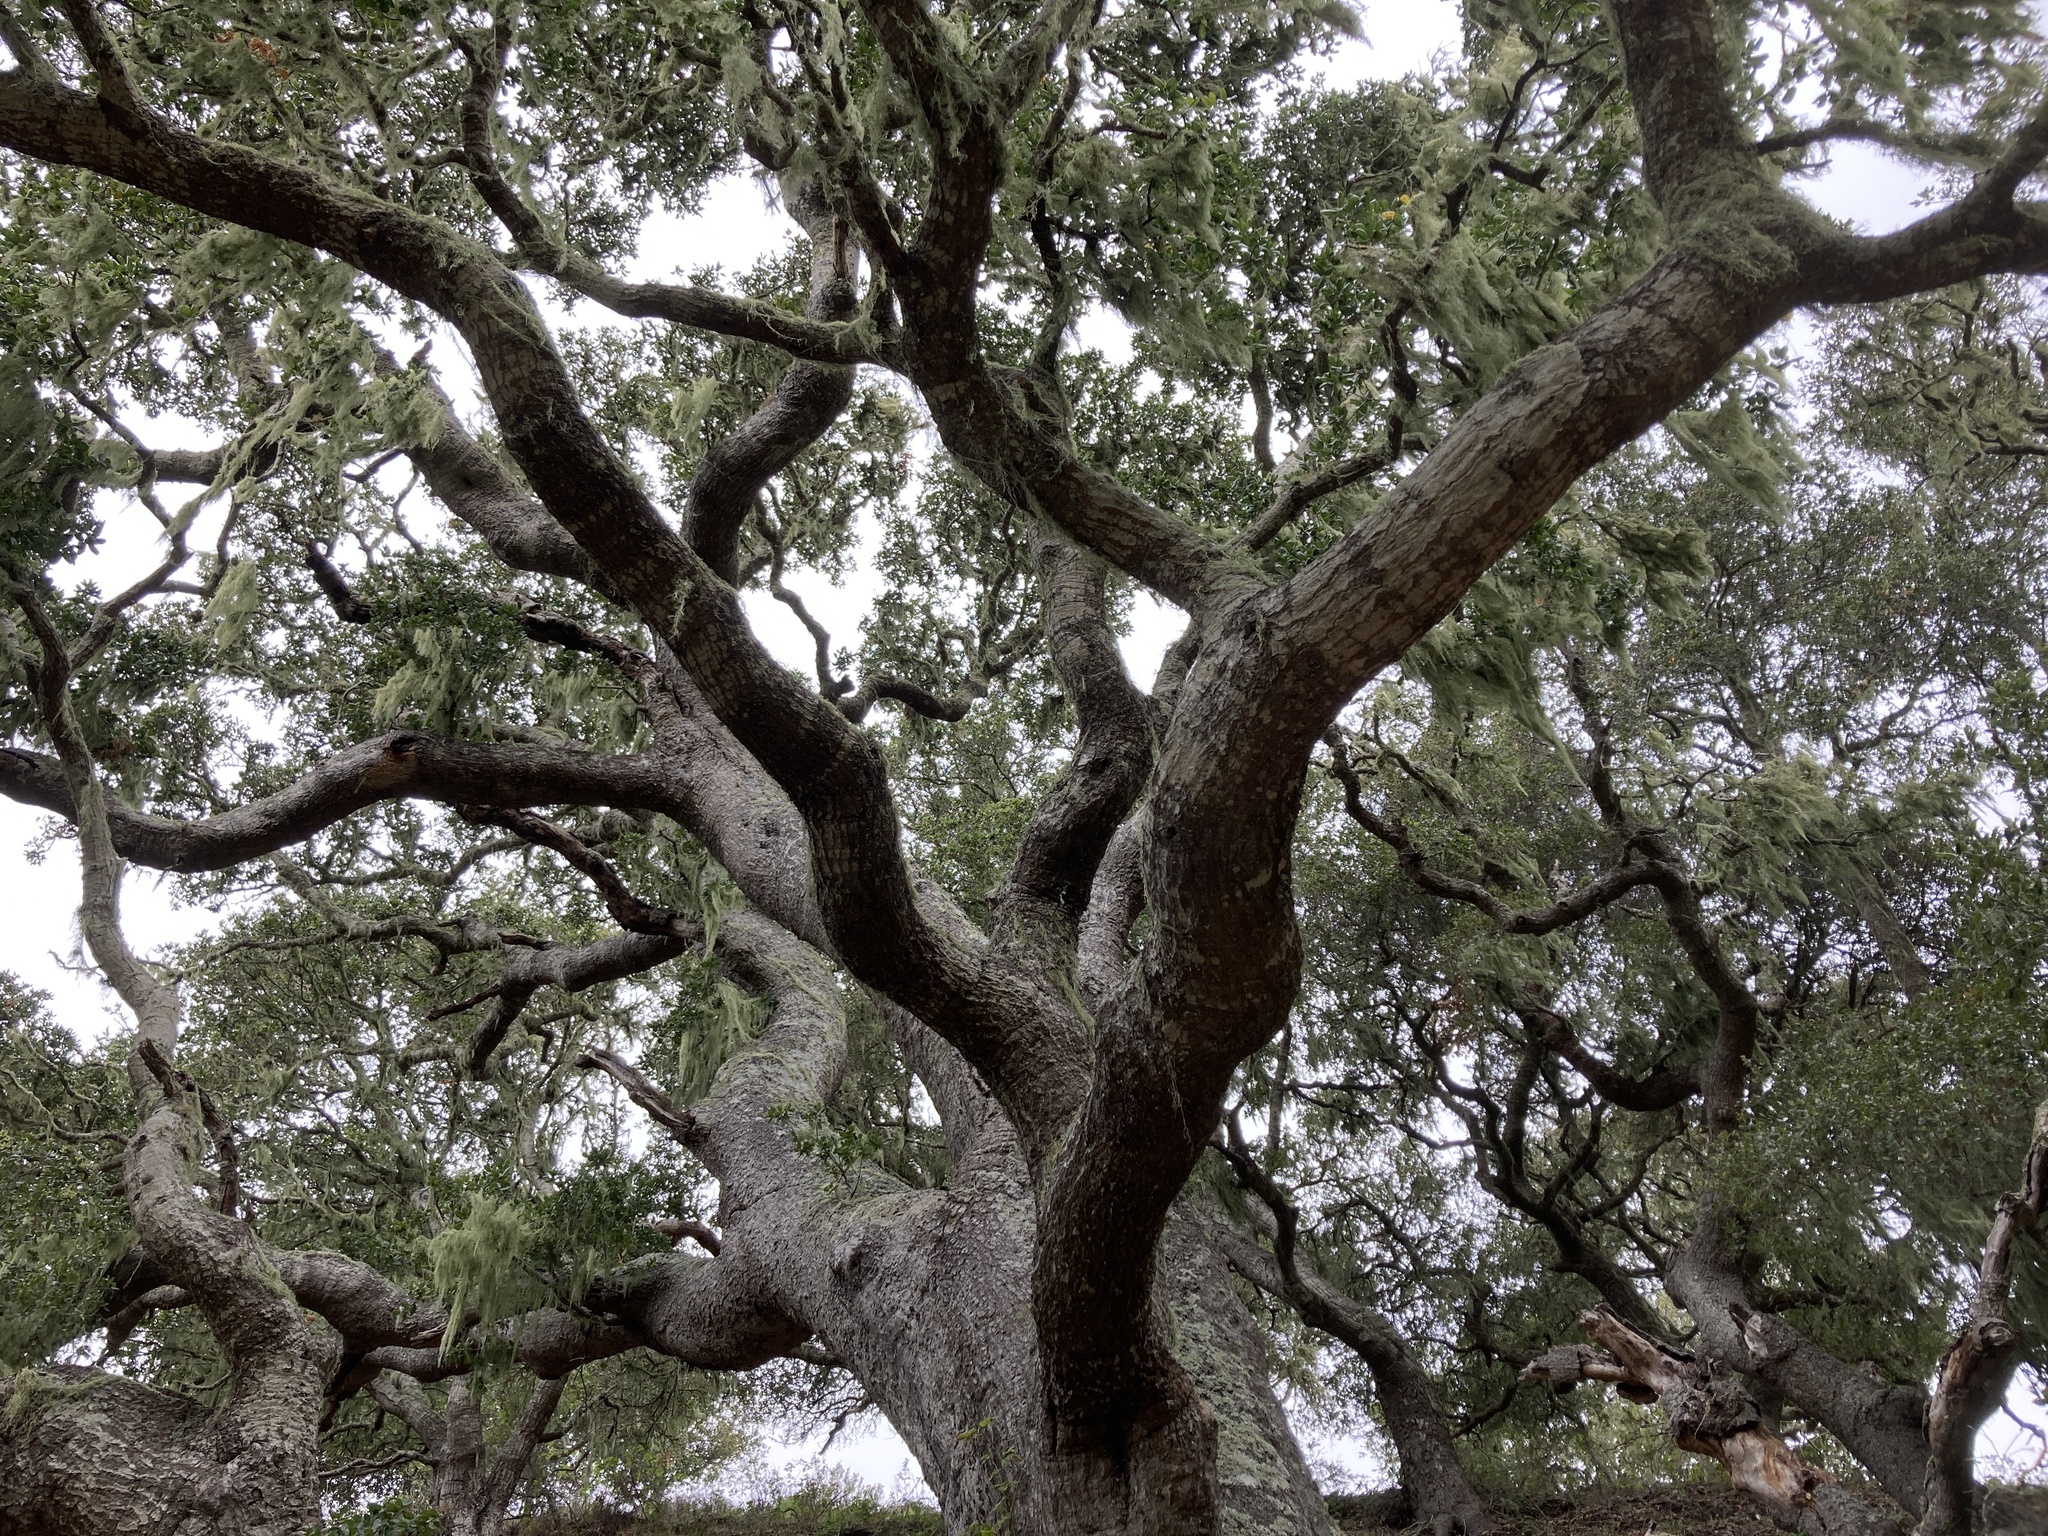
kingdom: Plantae
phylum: Tracheophyta
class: Magnoliopsida
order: Fagales
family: Fagaceae
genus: Quercus
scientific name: Quercus agrifolia
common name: California live oak
